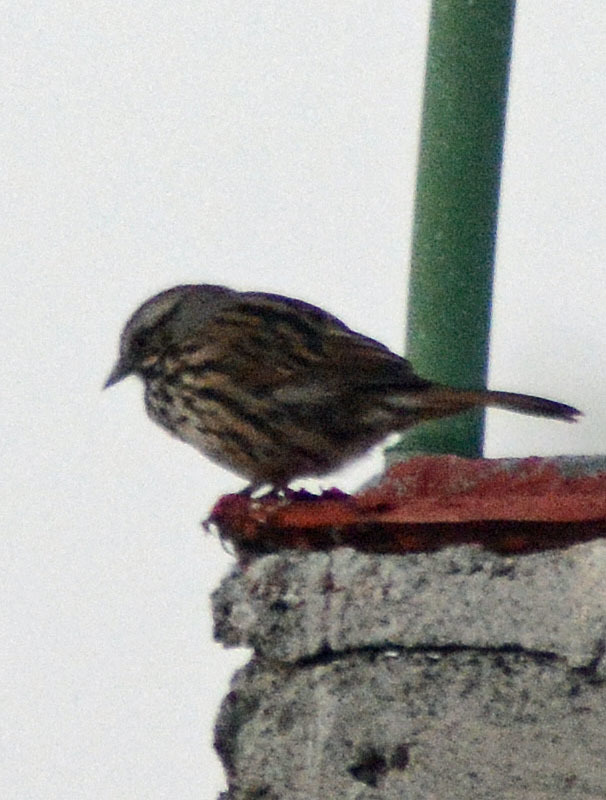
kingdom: Animalia
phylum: Chordata
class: Aves
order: Passeriformes
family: Passerellidae
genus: Melospiza
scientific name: Melospiza melodia
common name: Song sparrow
